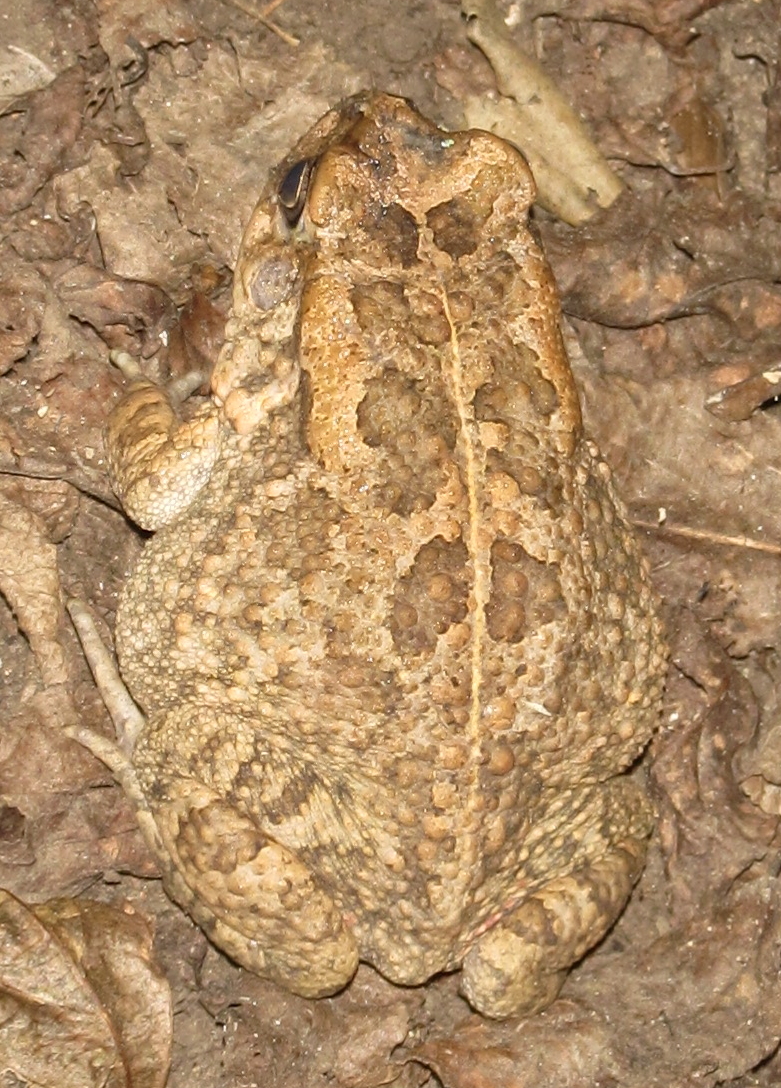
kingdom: Animalia
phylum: Chordata
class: Amphibia
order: Anura
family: Bufonidae
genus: Sclerophrys
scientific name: Sclerophrys gutturalis
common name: African common toad
